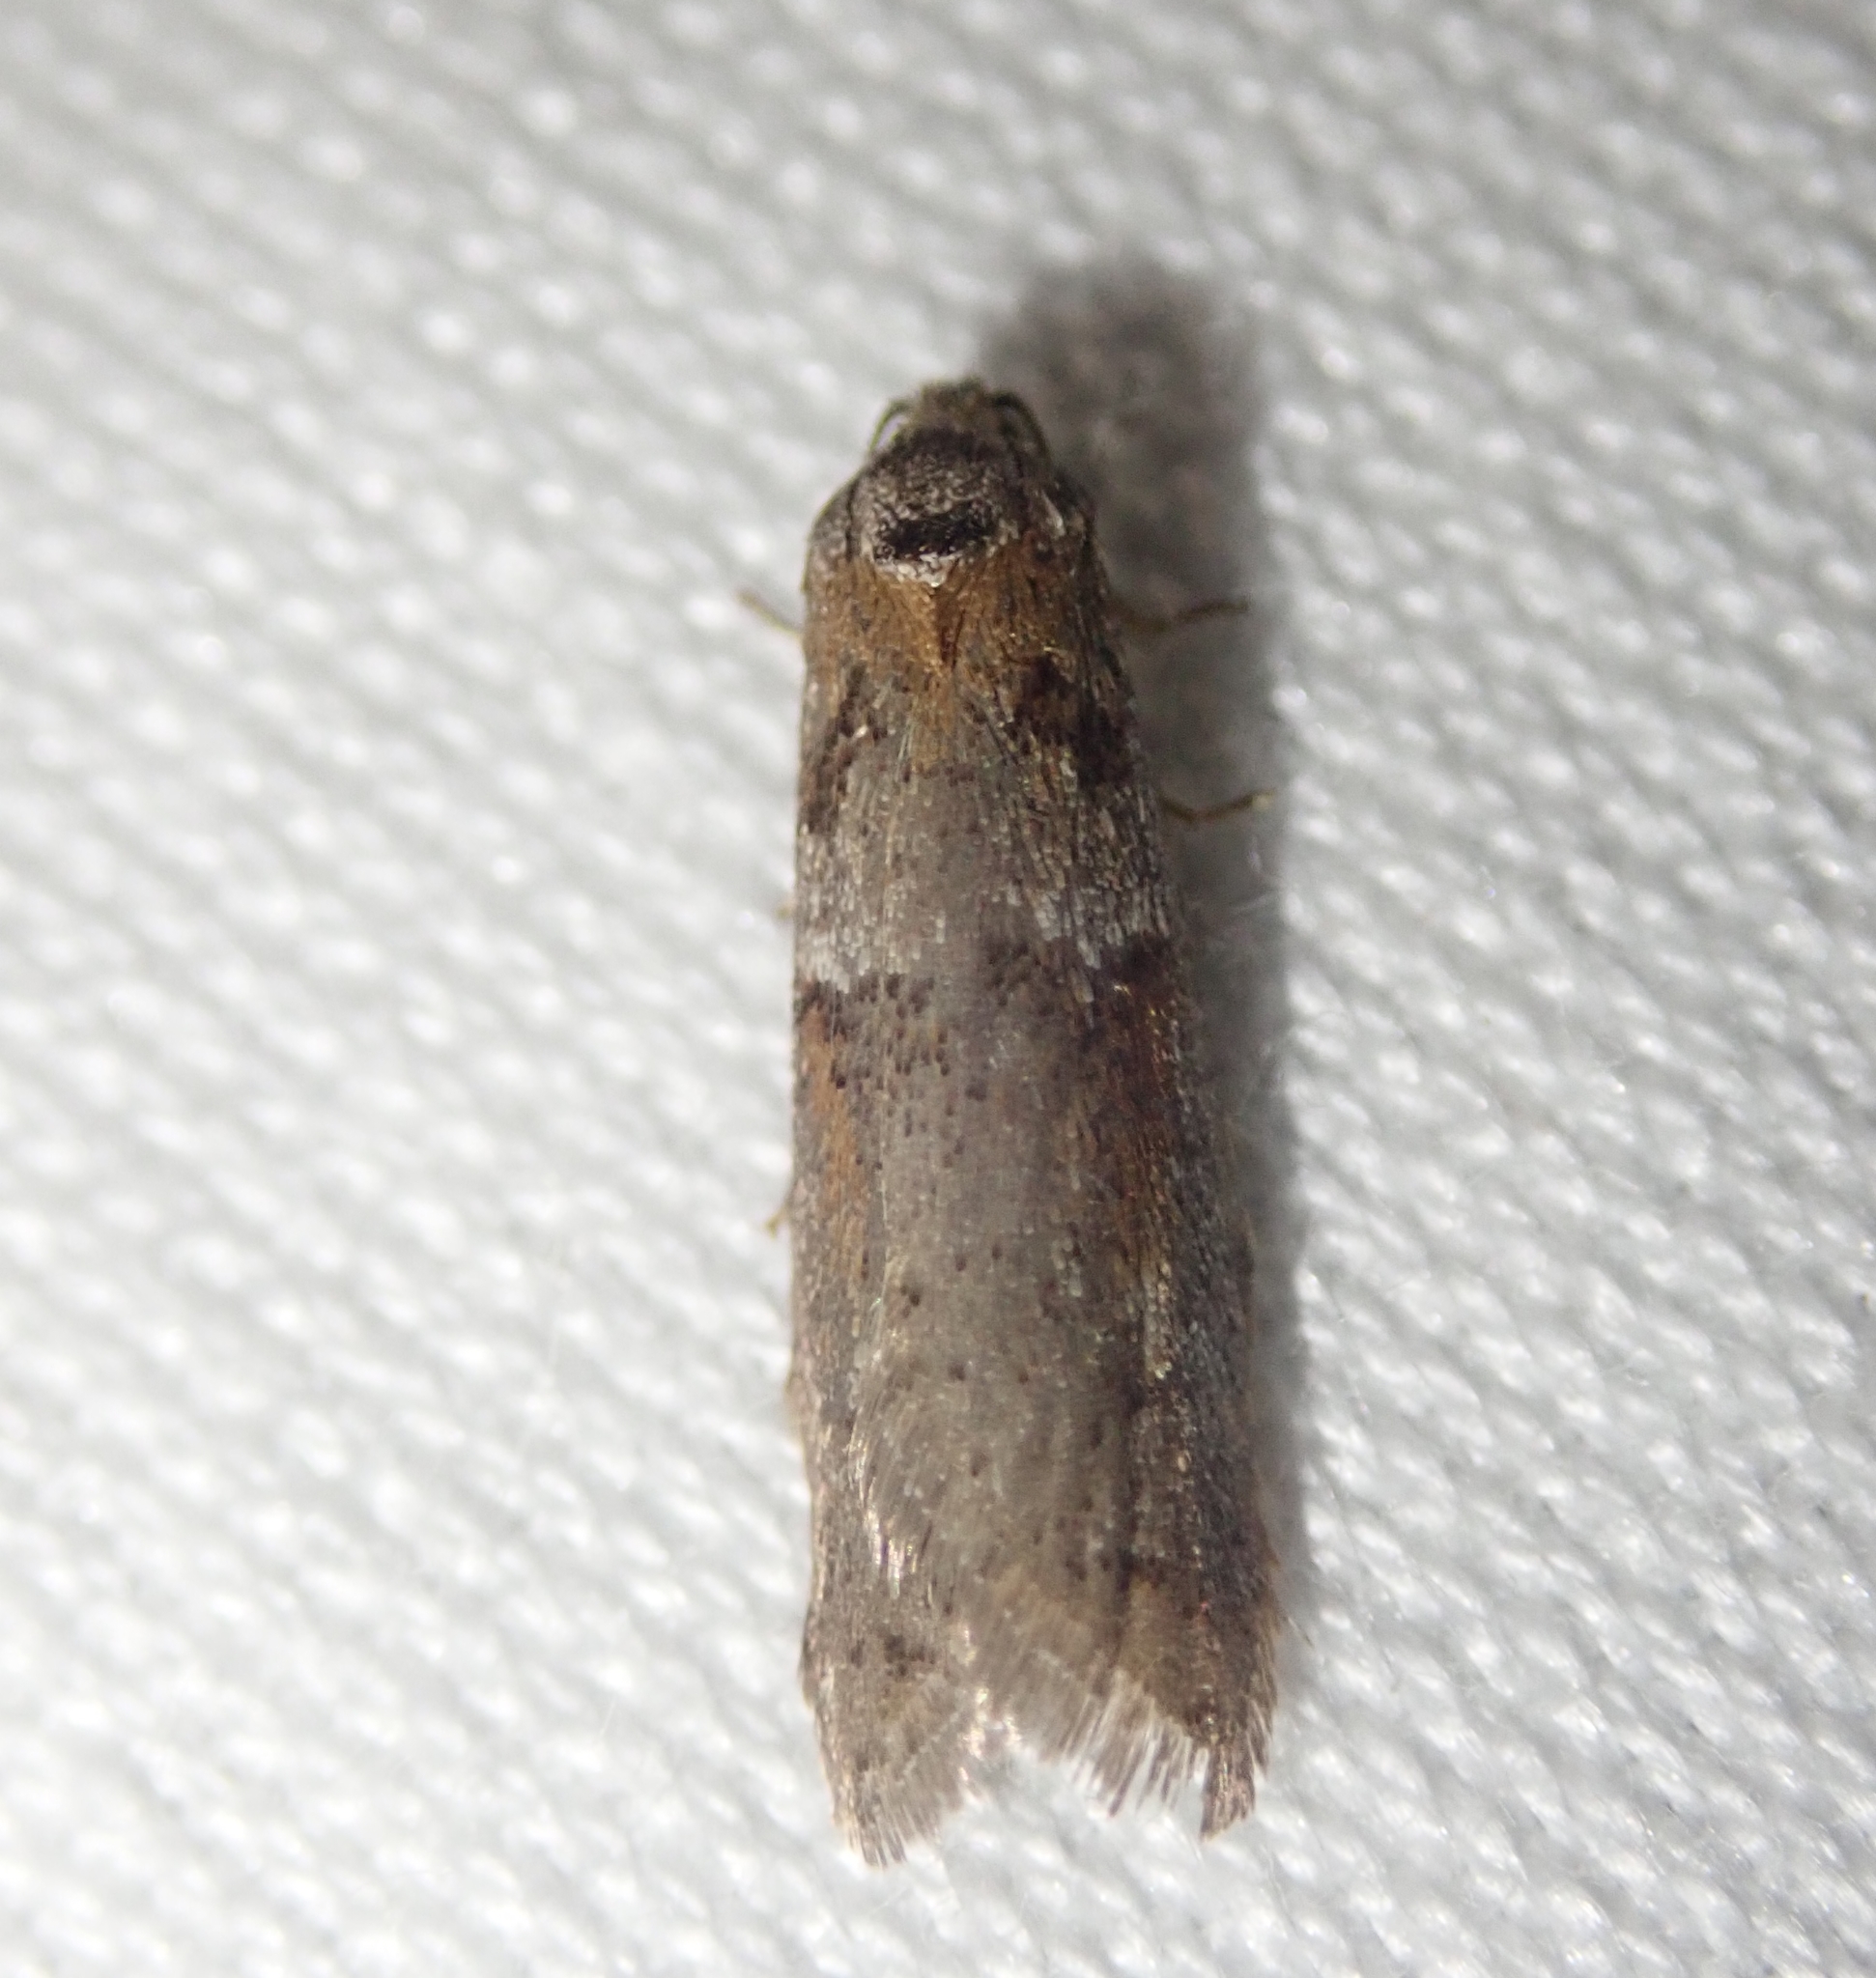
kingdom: Animalia
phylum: Arthropoda
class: Insecta
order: Lepidoptera
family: Tortricidae
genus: Tortricodes
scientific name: Tortricodes alternella
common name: Winter shade
